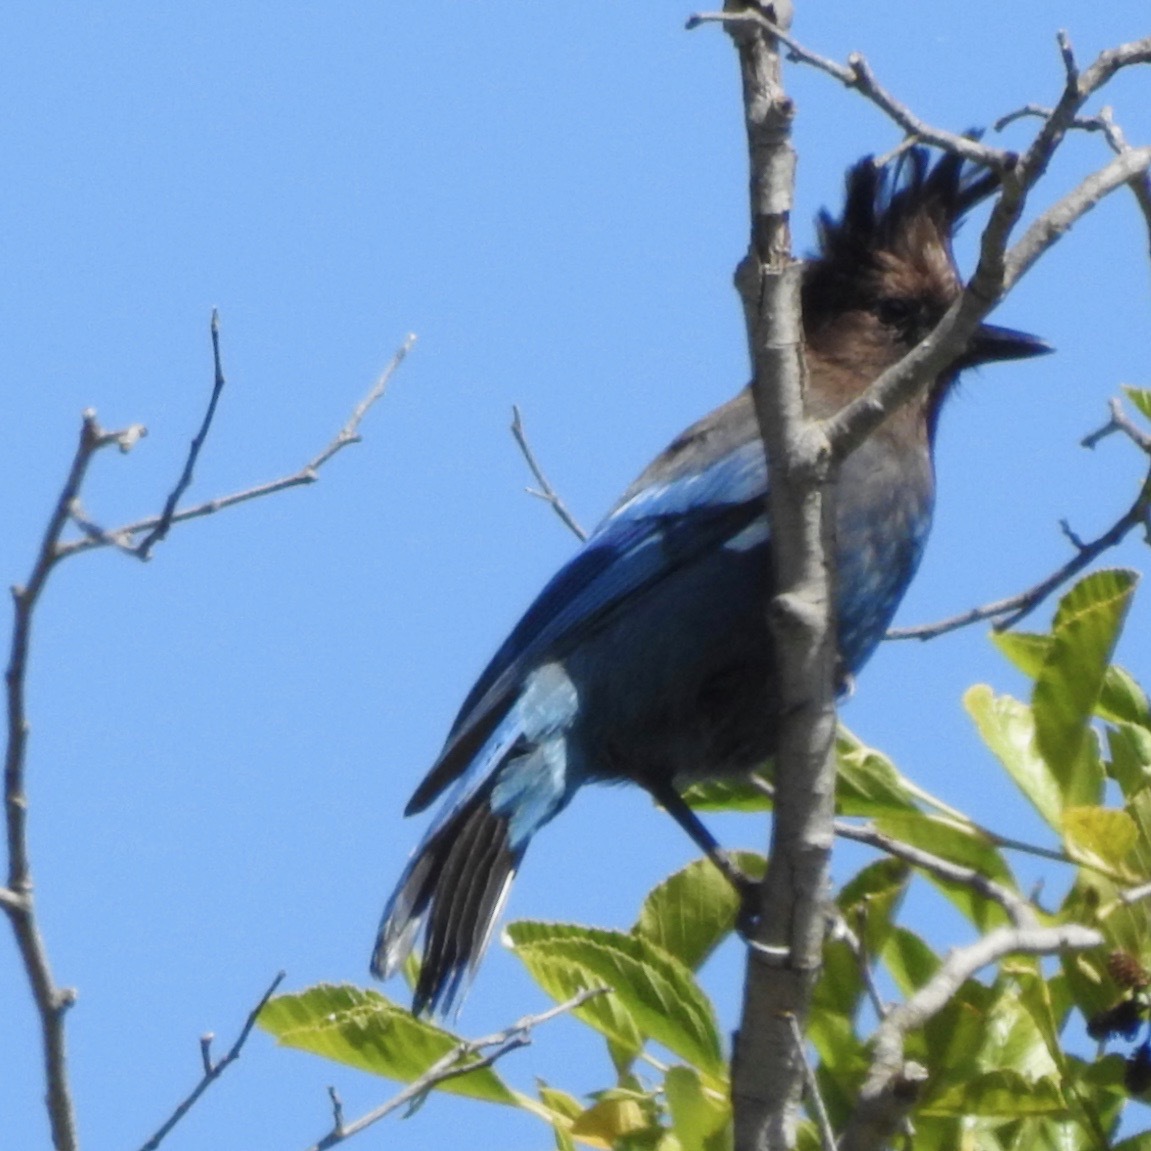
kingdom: Animalia
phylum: Chordata
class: Aves
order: Passeriformes
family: Corvidae
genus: Cyanocitta
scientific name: Cyanocitta stelleri
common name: Steller's jay
